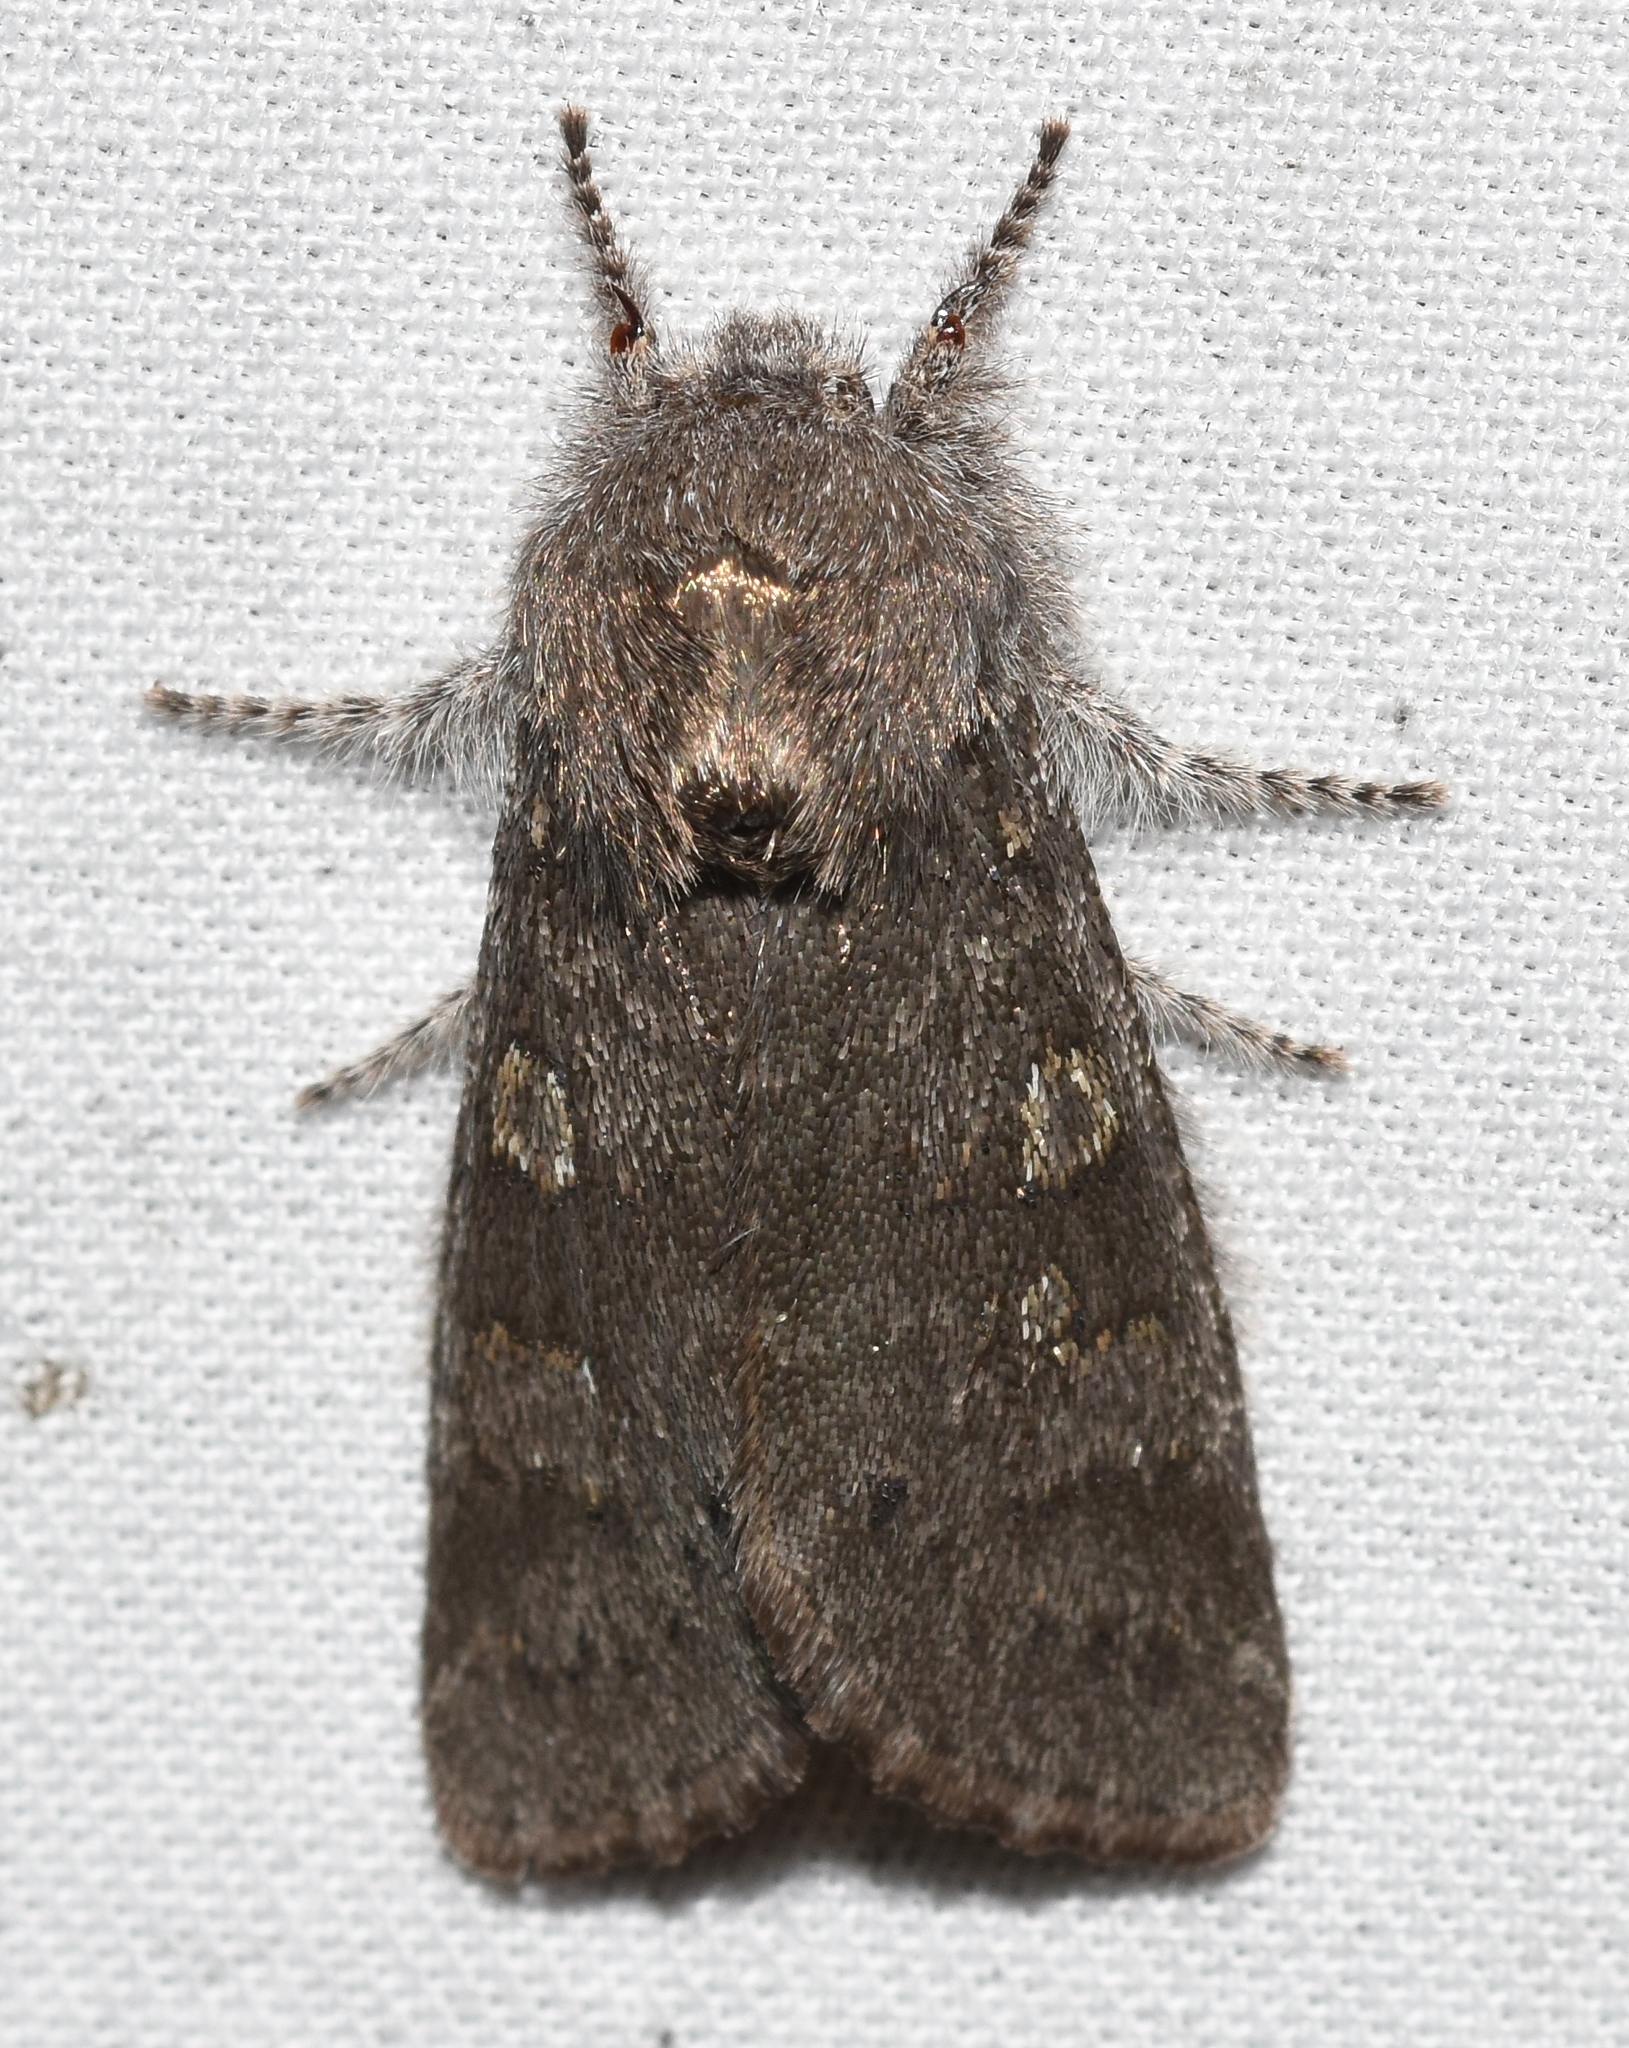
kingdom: Animalia
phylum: Arthropoda
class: Insecta
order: Lepidoptera
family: Noctuidae
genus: Psaphida
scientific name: Psaphida rolandi
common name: Roland's sallow
